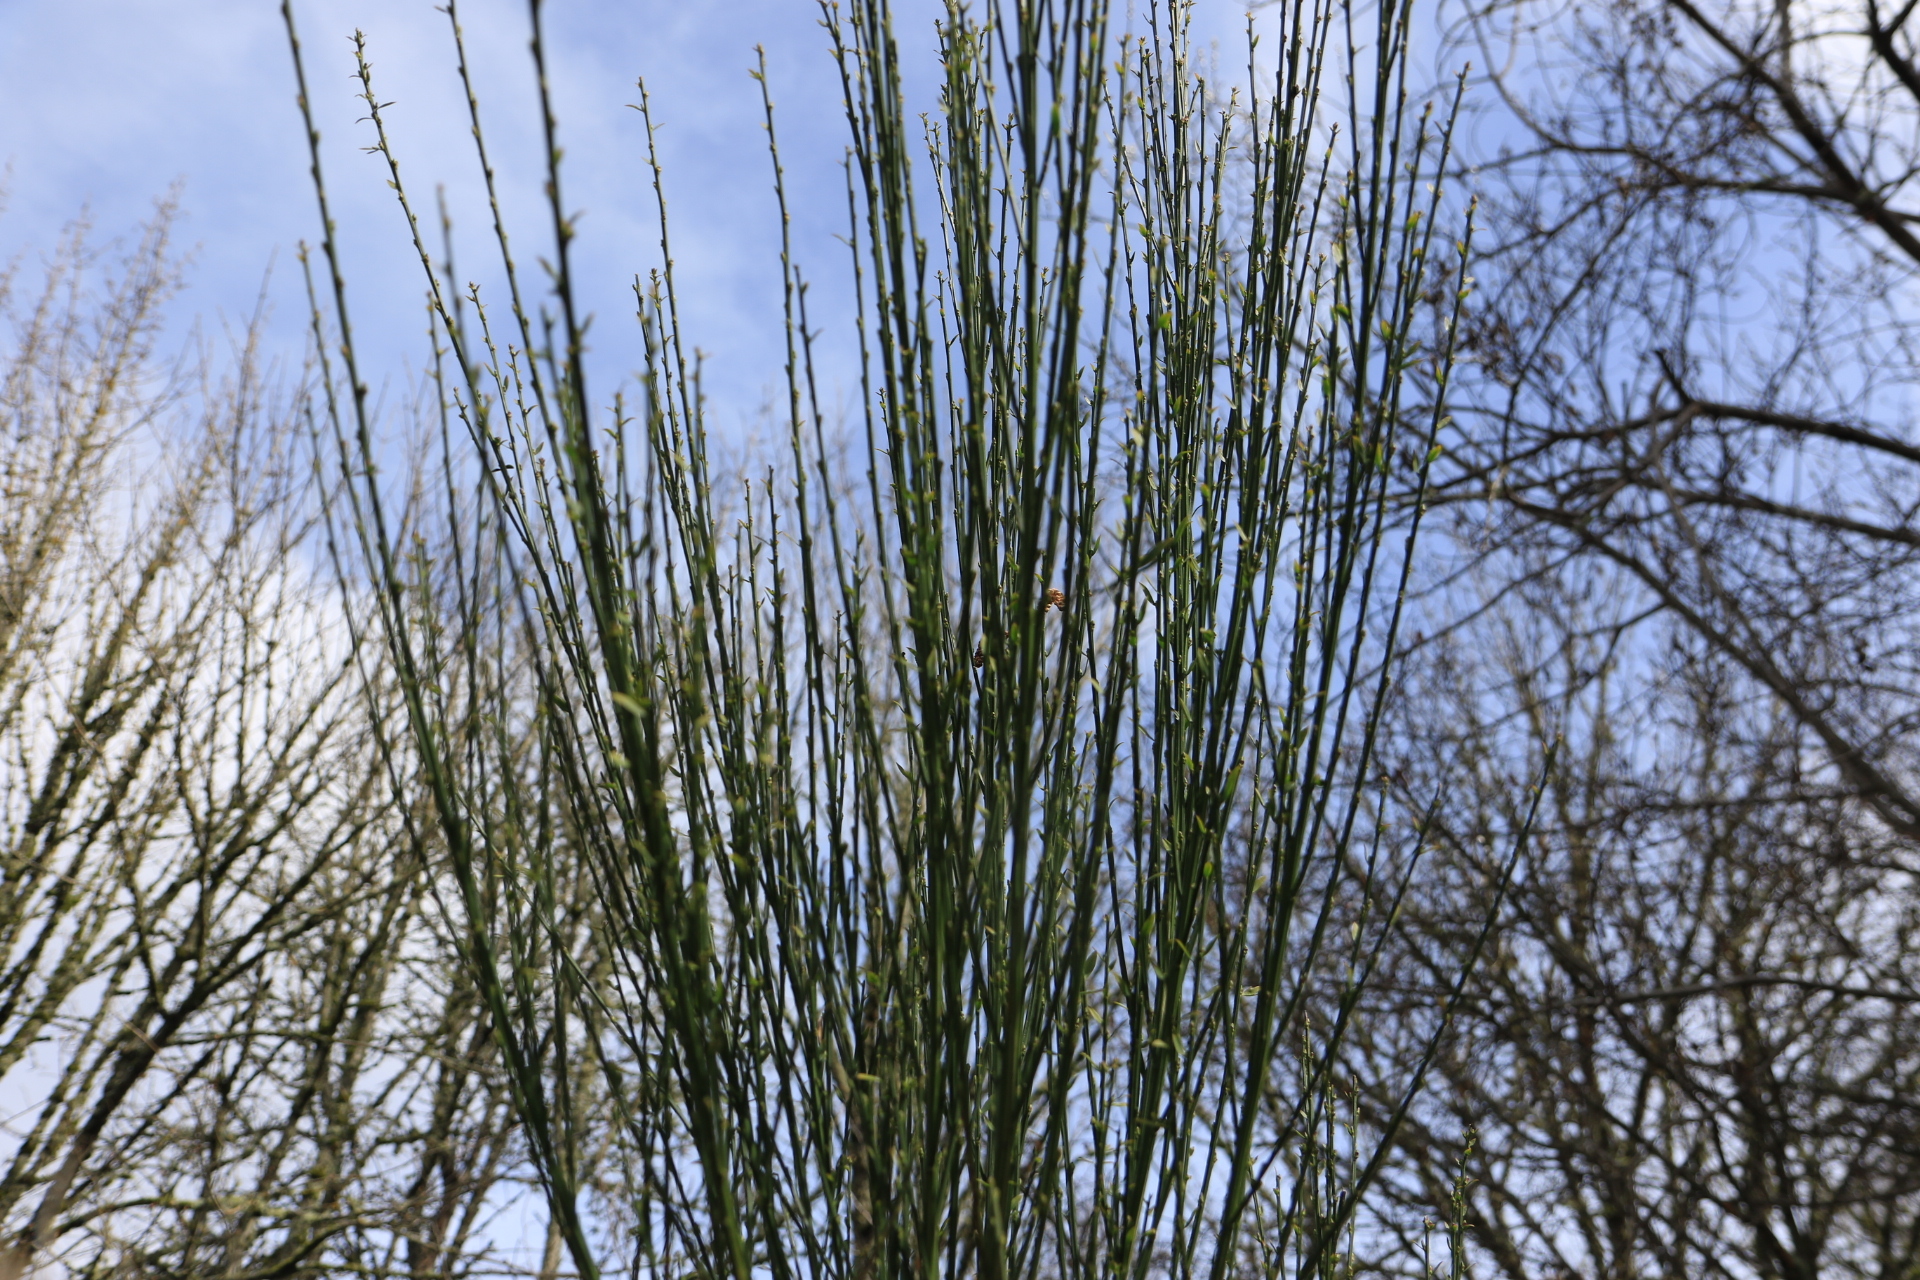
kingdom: Plantae
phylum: Tracheophyta
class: Magnoliopsida
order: Fabales
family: Fabaceae
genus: Cytisus
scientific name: Cytisus scoparius
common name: Scotch broom
